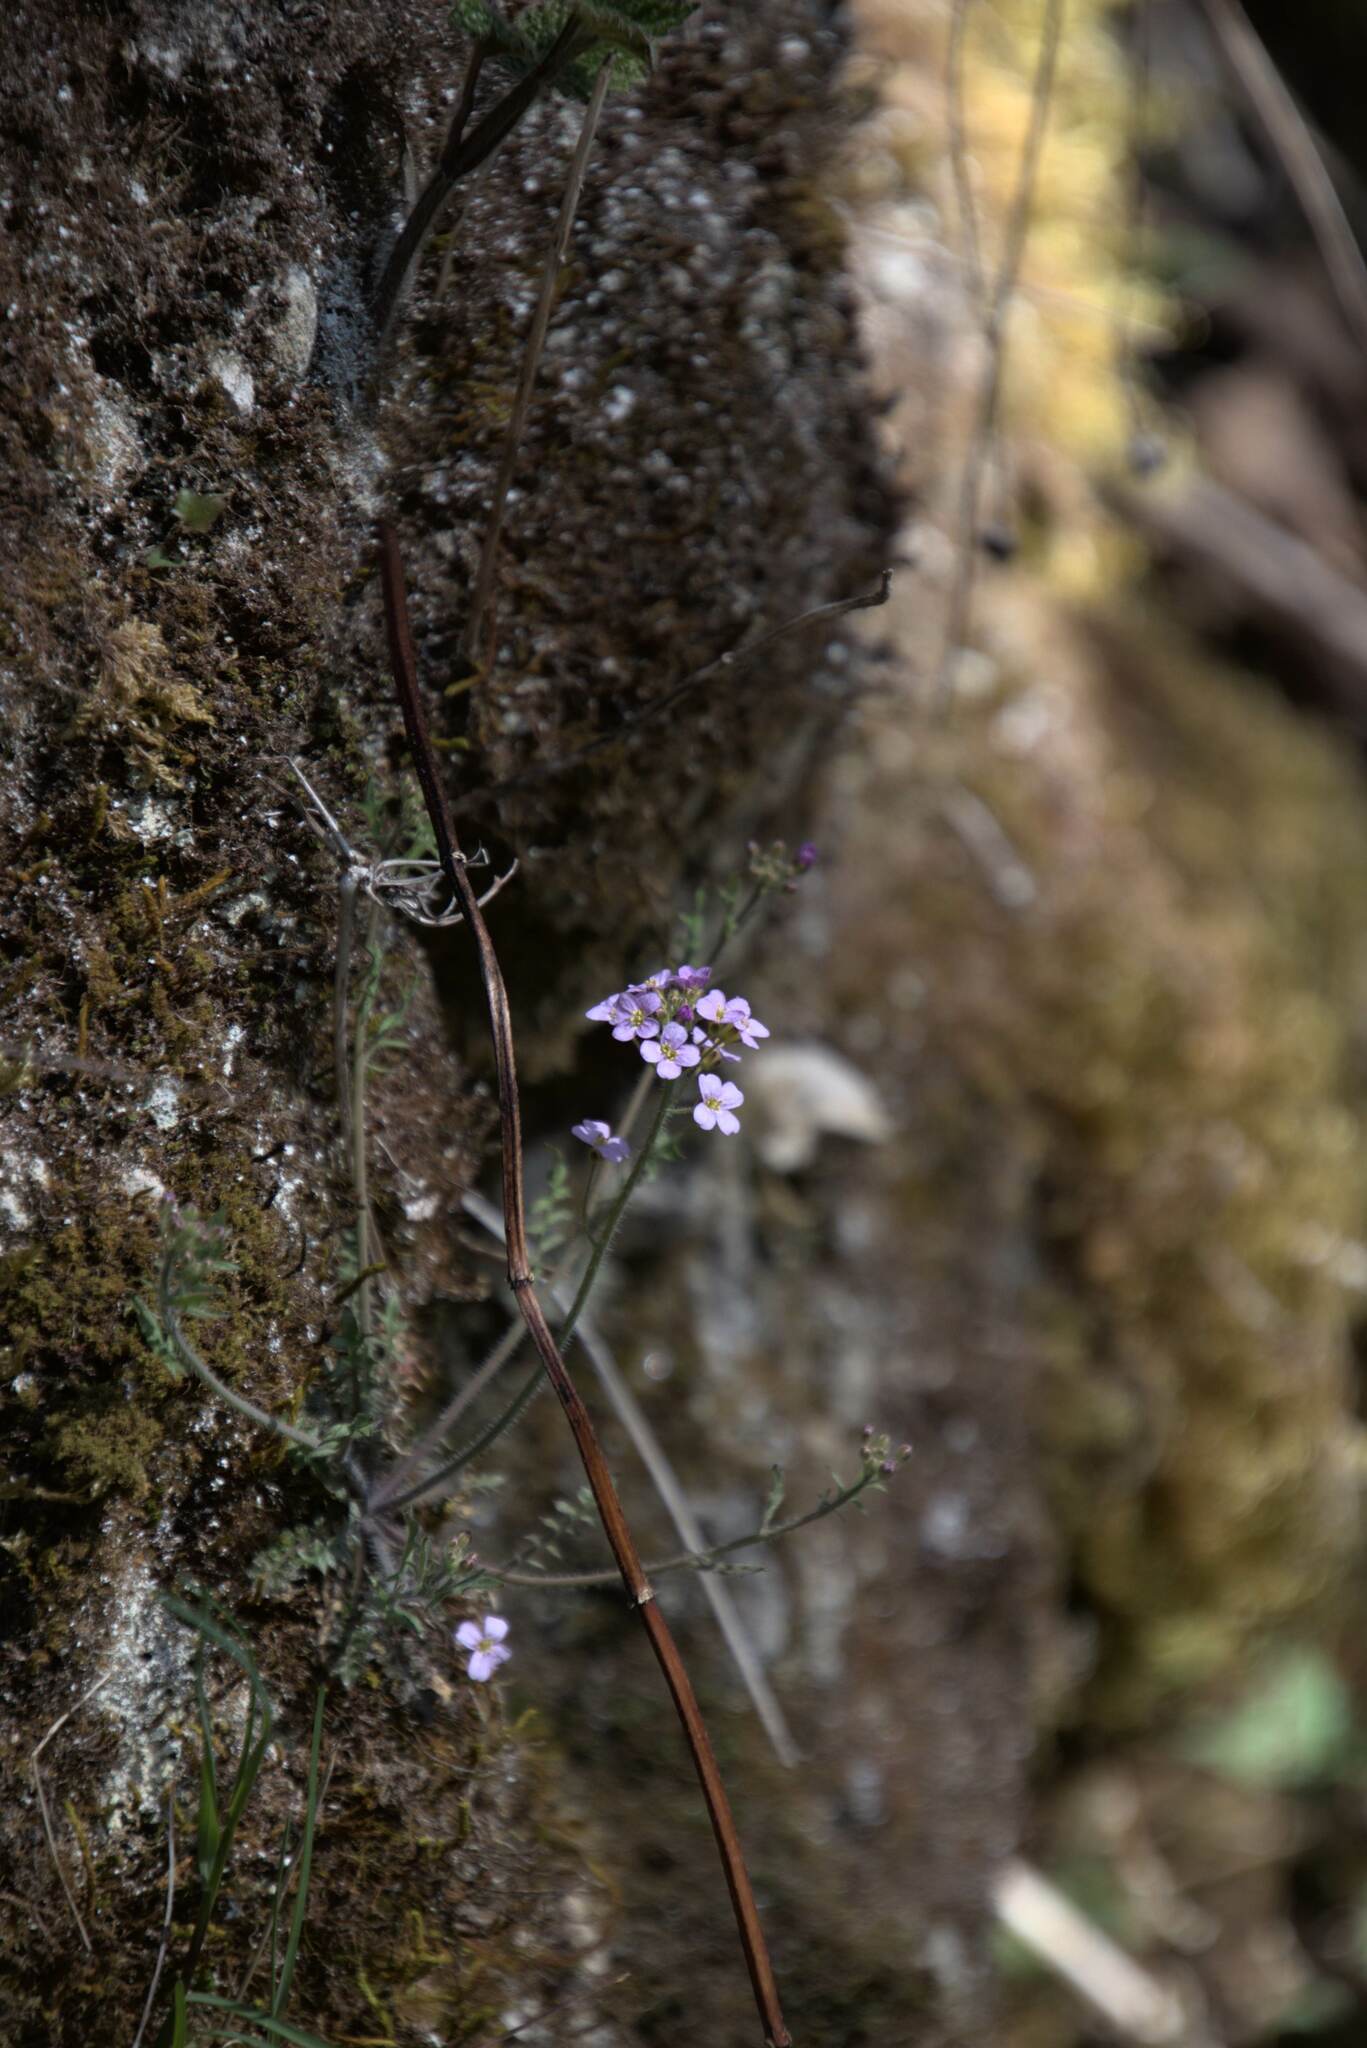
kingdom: Plantae
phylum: Tracheophyta
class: Magnoliopsida
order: Brassicales
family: Brassicaceae
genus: Arabidopsis
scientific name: Arabidopsis arenosa
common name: Sand rock-cress
